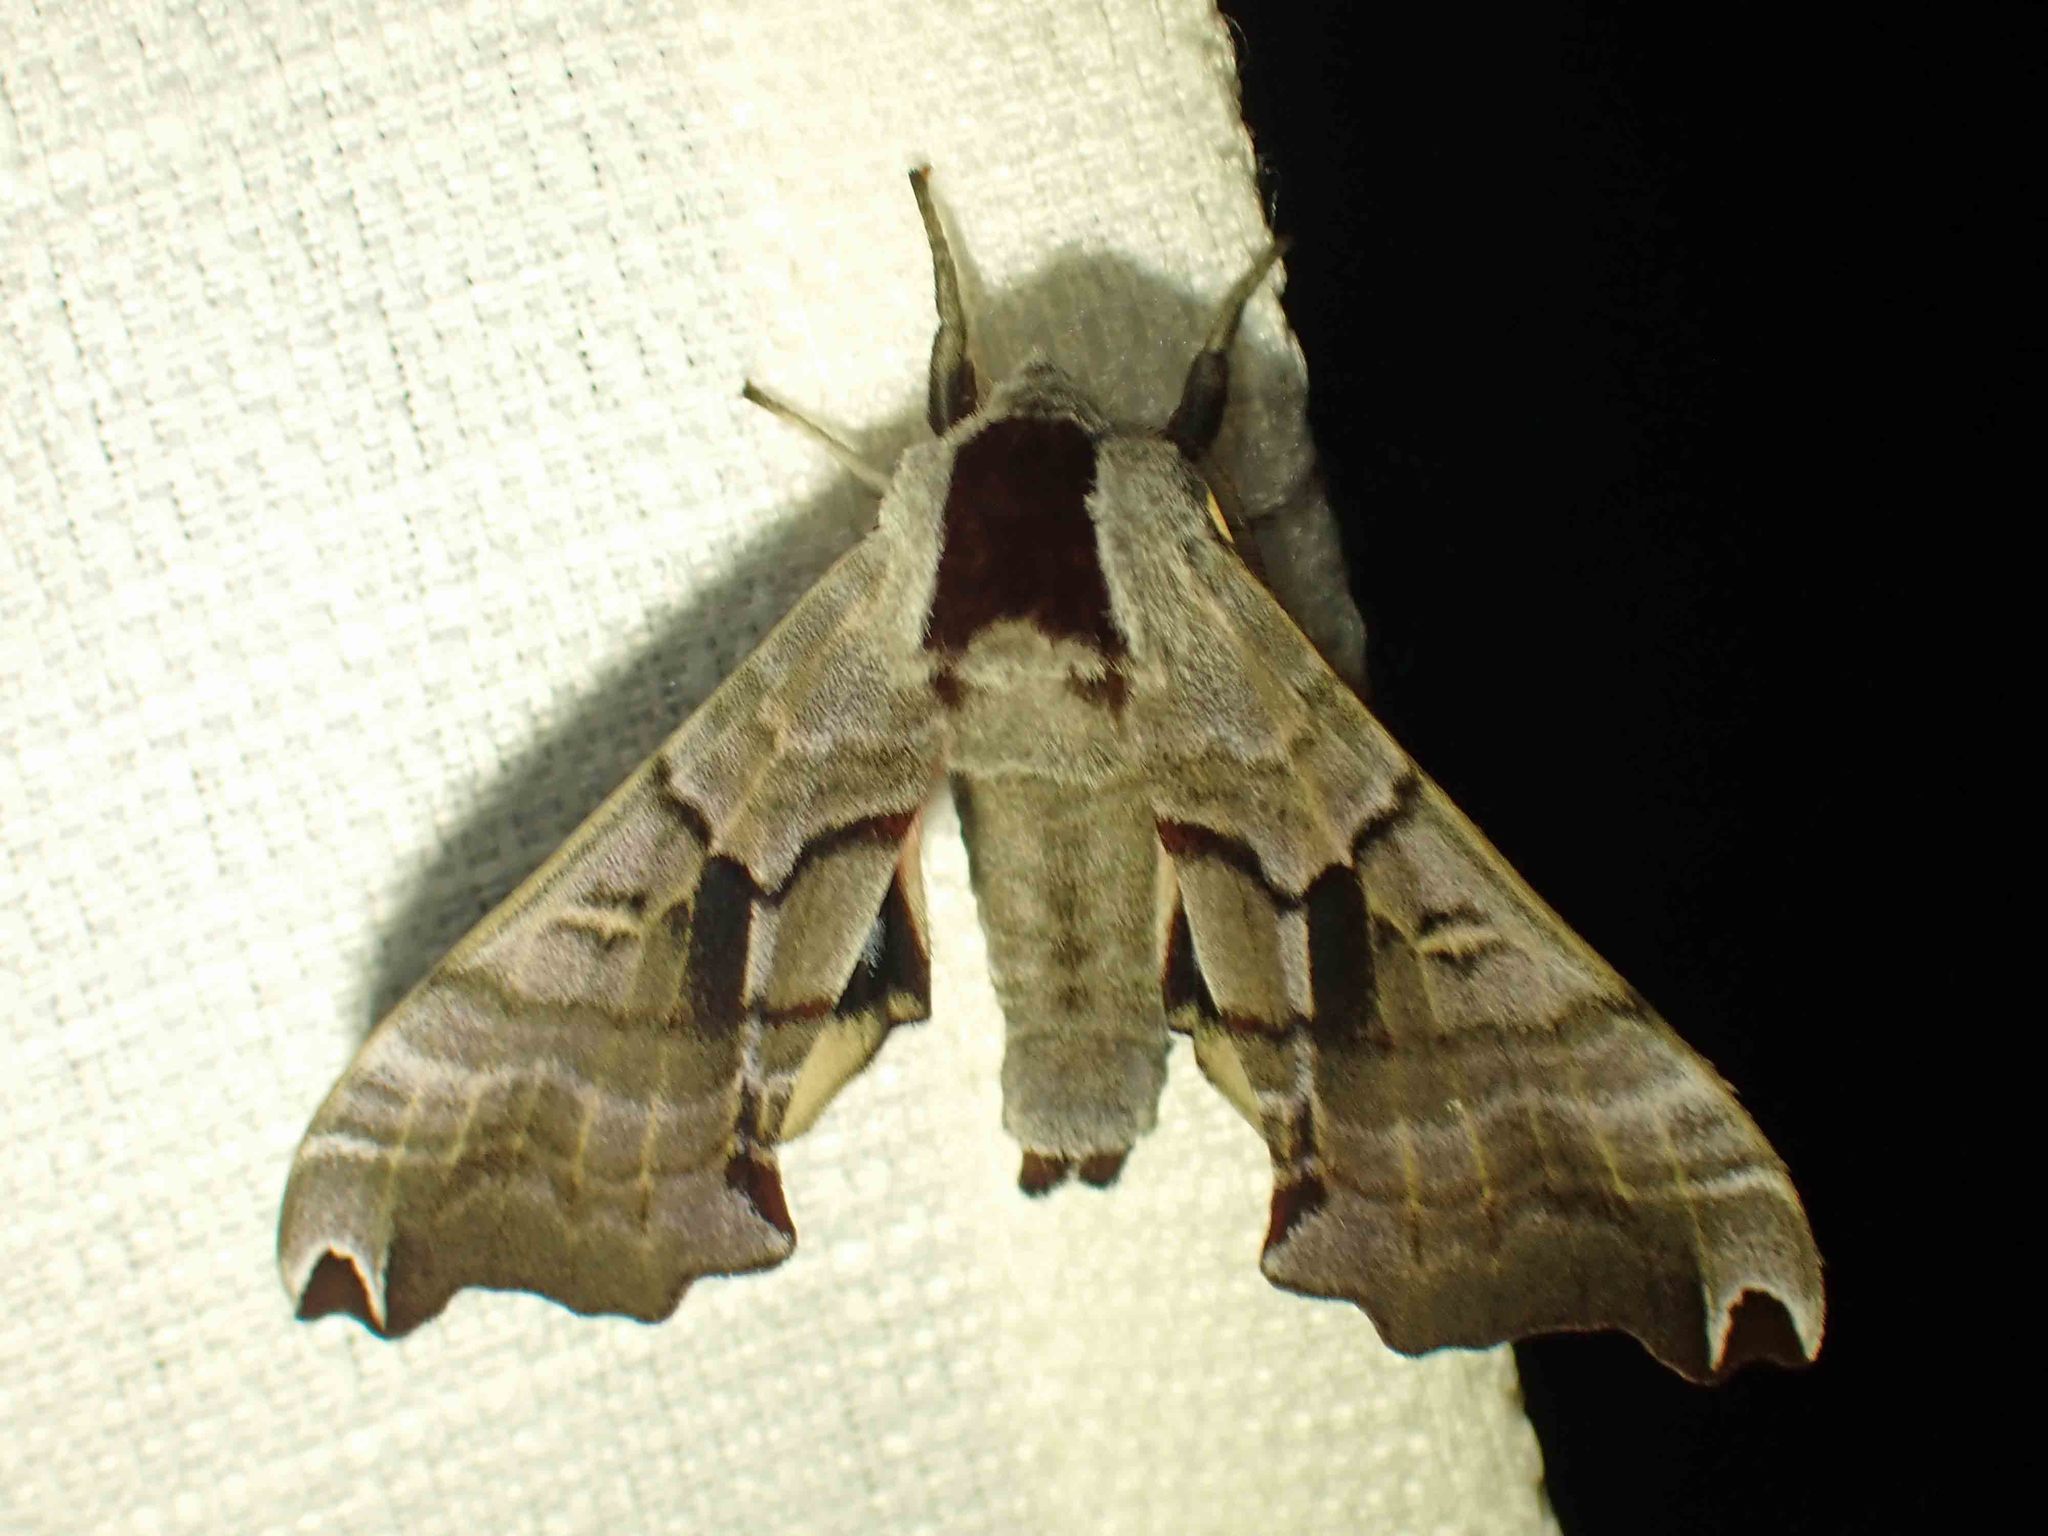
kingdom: Animalia
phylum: Arthropoda
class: Insecta
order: Lepidoptera
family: Sphingidae
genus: Smerinthus
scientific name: Smerinthus jamaicensis
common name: Twin spotted sphinx
